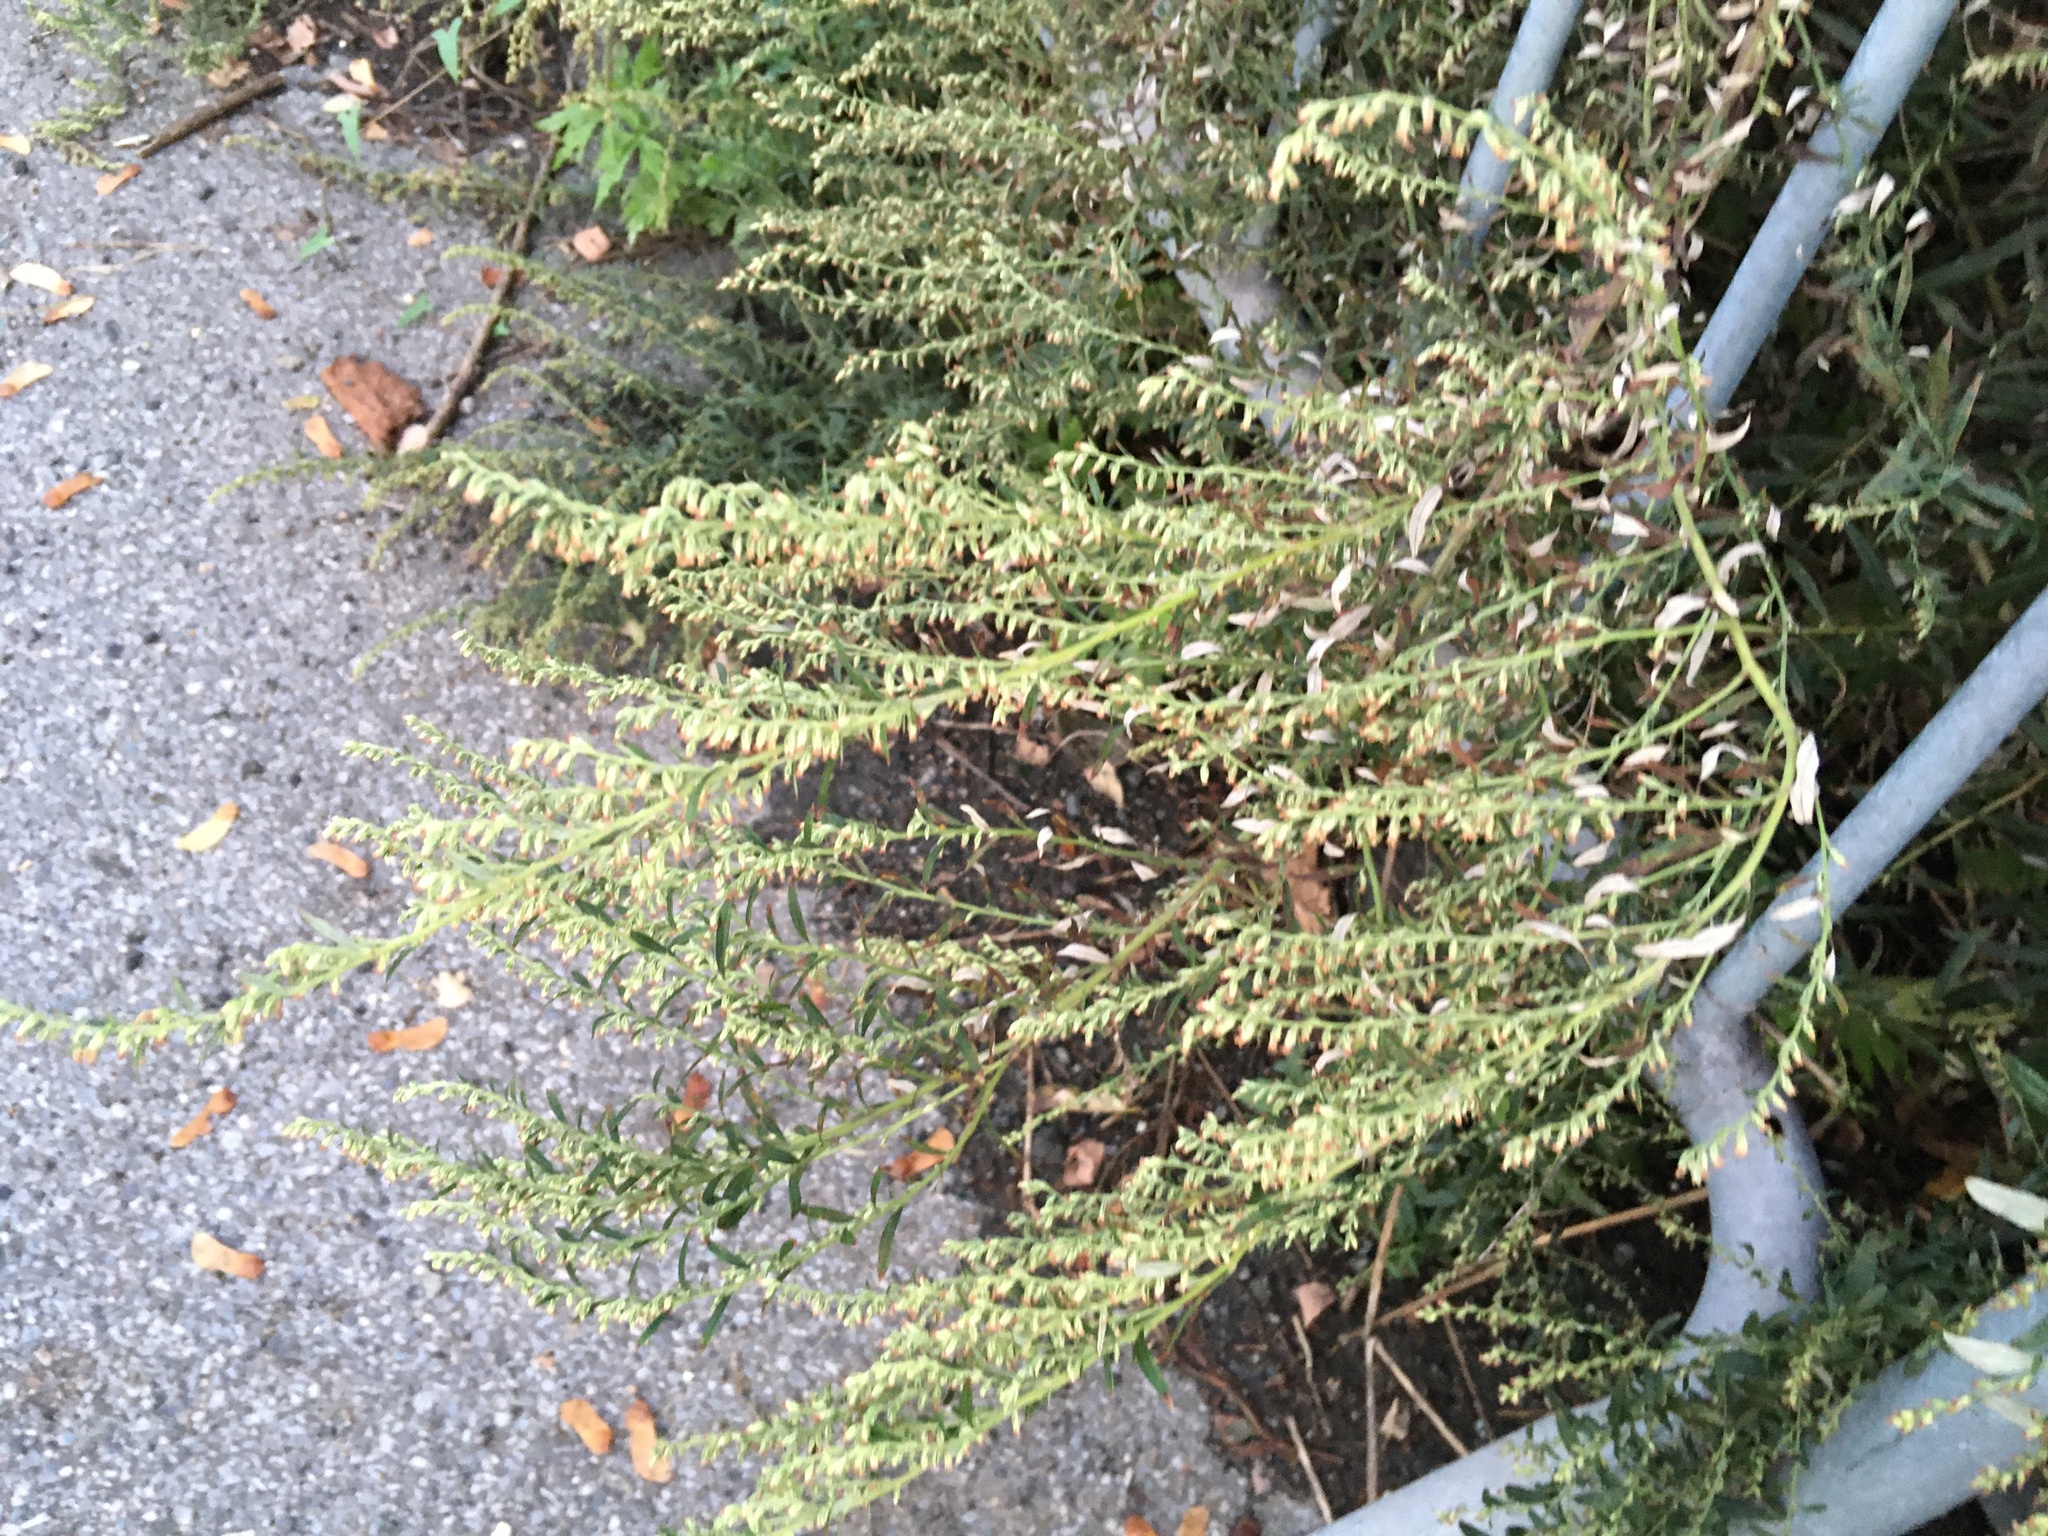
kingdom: Plantae
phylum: Tracheophyta
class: Magnoliopsida
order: Asterales
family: Asteraceae
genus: Artemisia
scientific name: Artemisia vulgaris
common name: Mugwort
